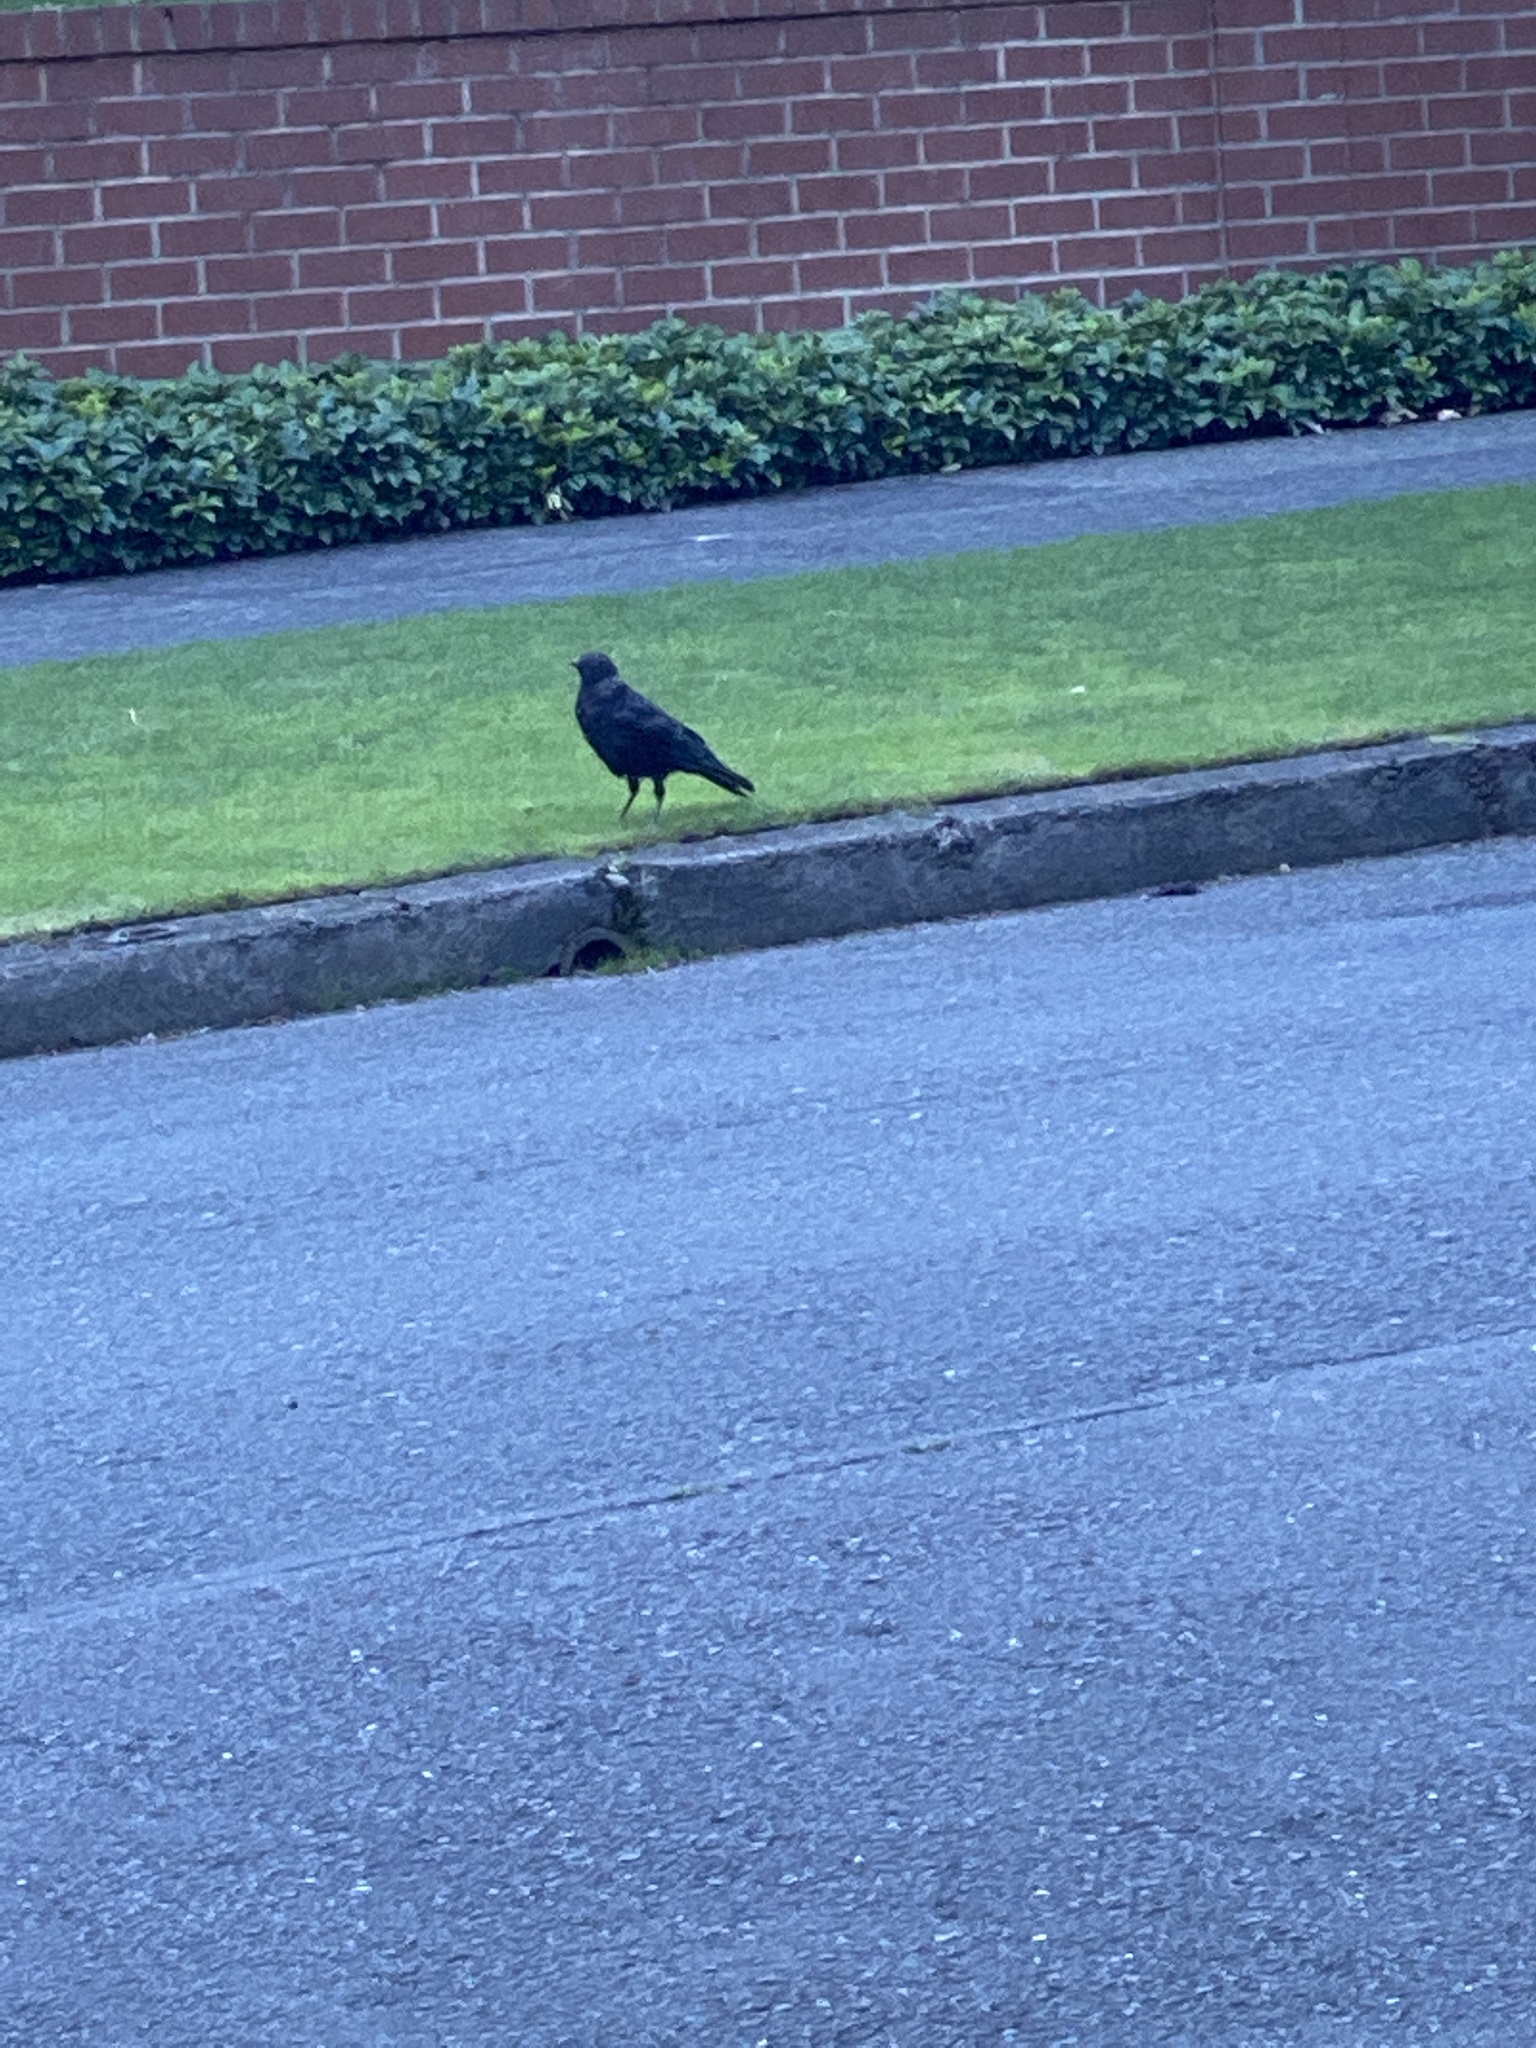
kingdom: Animalia
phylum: Chordata
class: Aves
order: Passeriformes
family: Corvidae
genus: Corvus
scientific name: Corvus brachyrhynchos
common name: American crow
